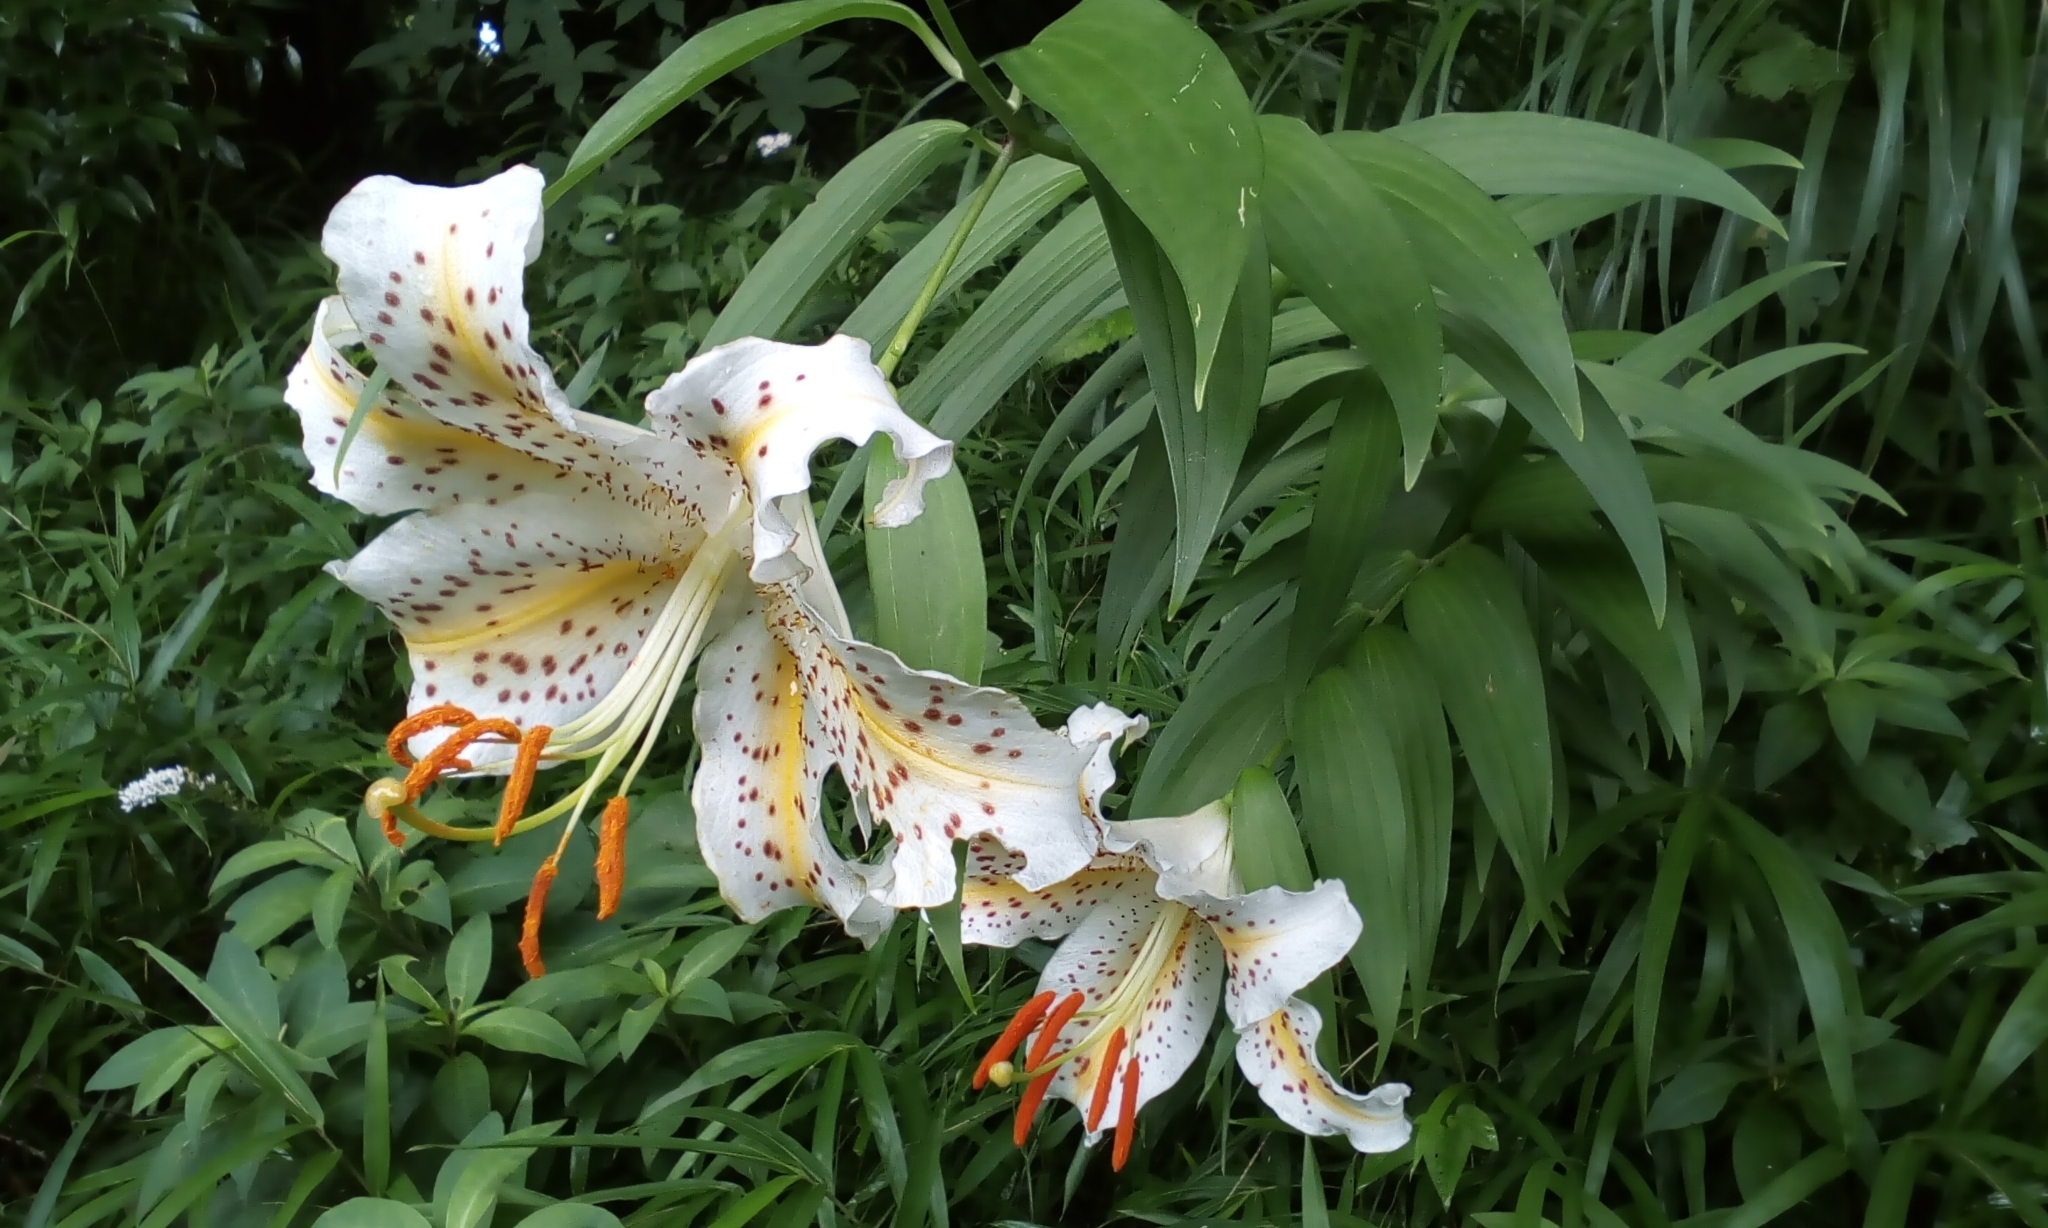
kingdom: Plantae
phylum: Tracheophyta
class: Liliopsida
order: Liliales
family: Liliaceae
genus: Lilium
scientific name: Lilium auratum
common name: Golden-ray lily
